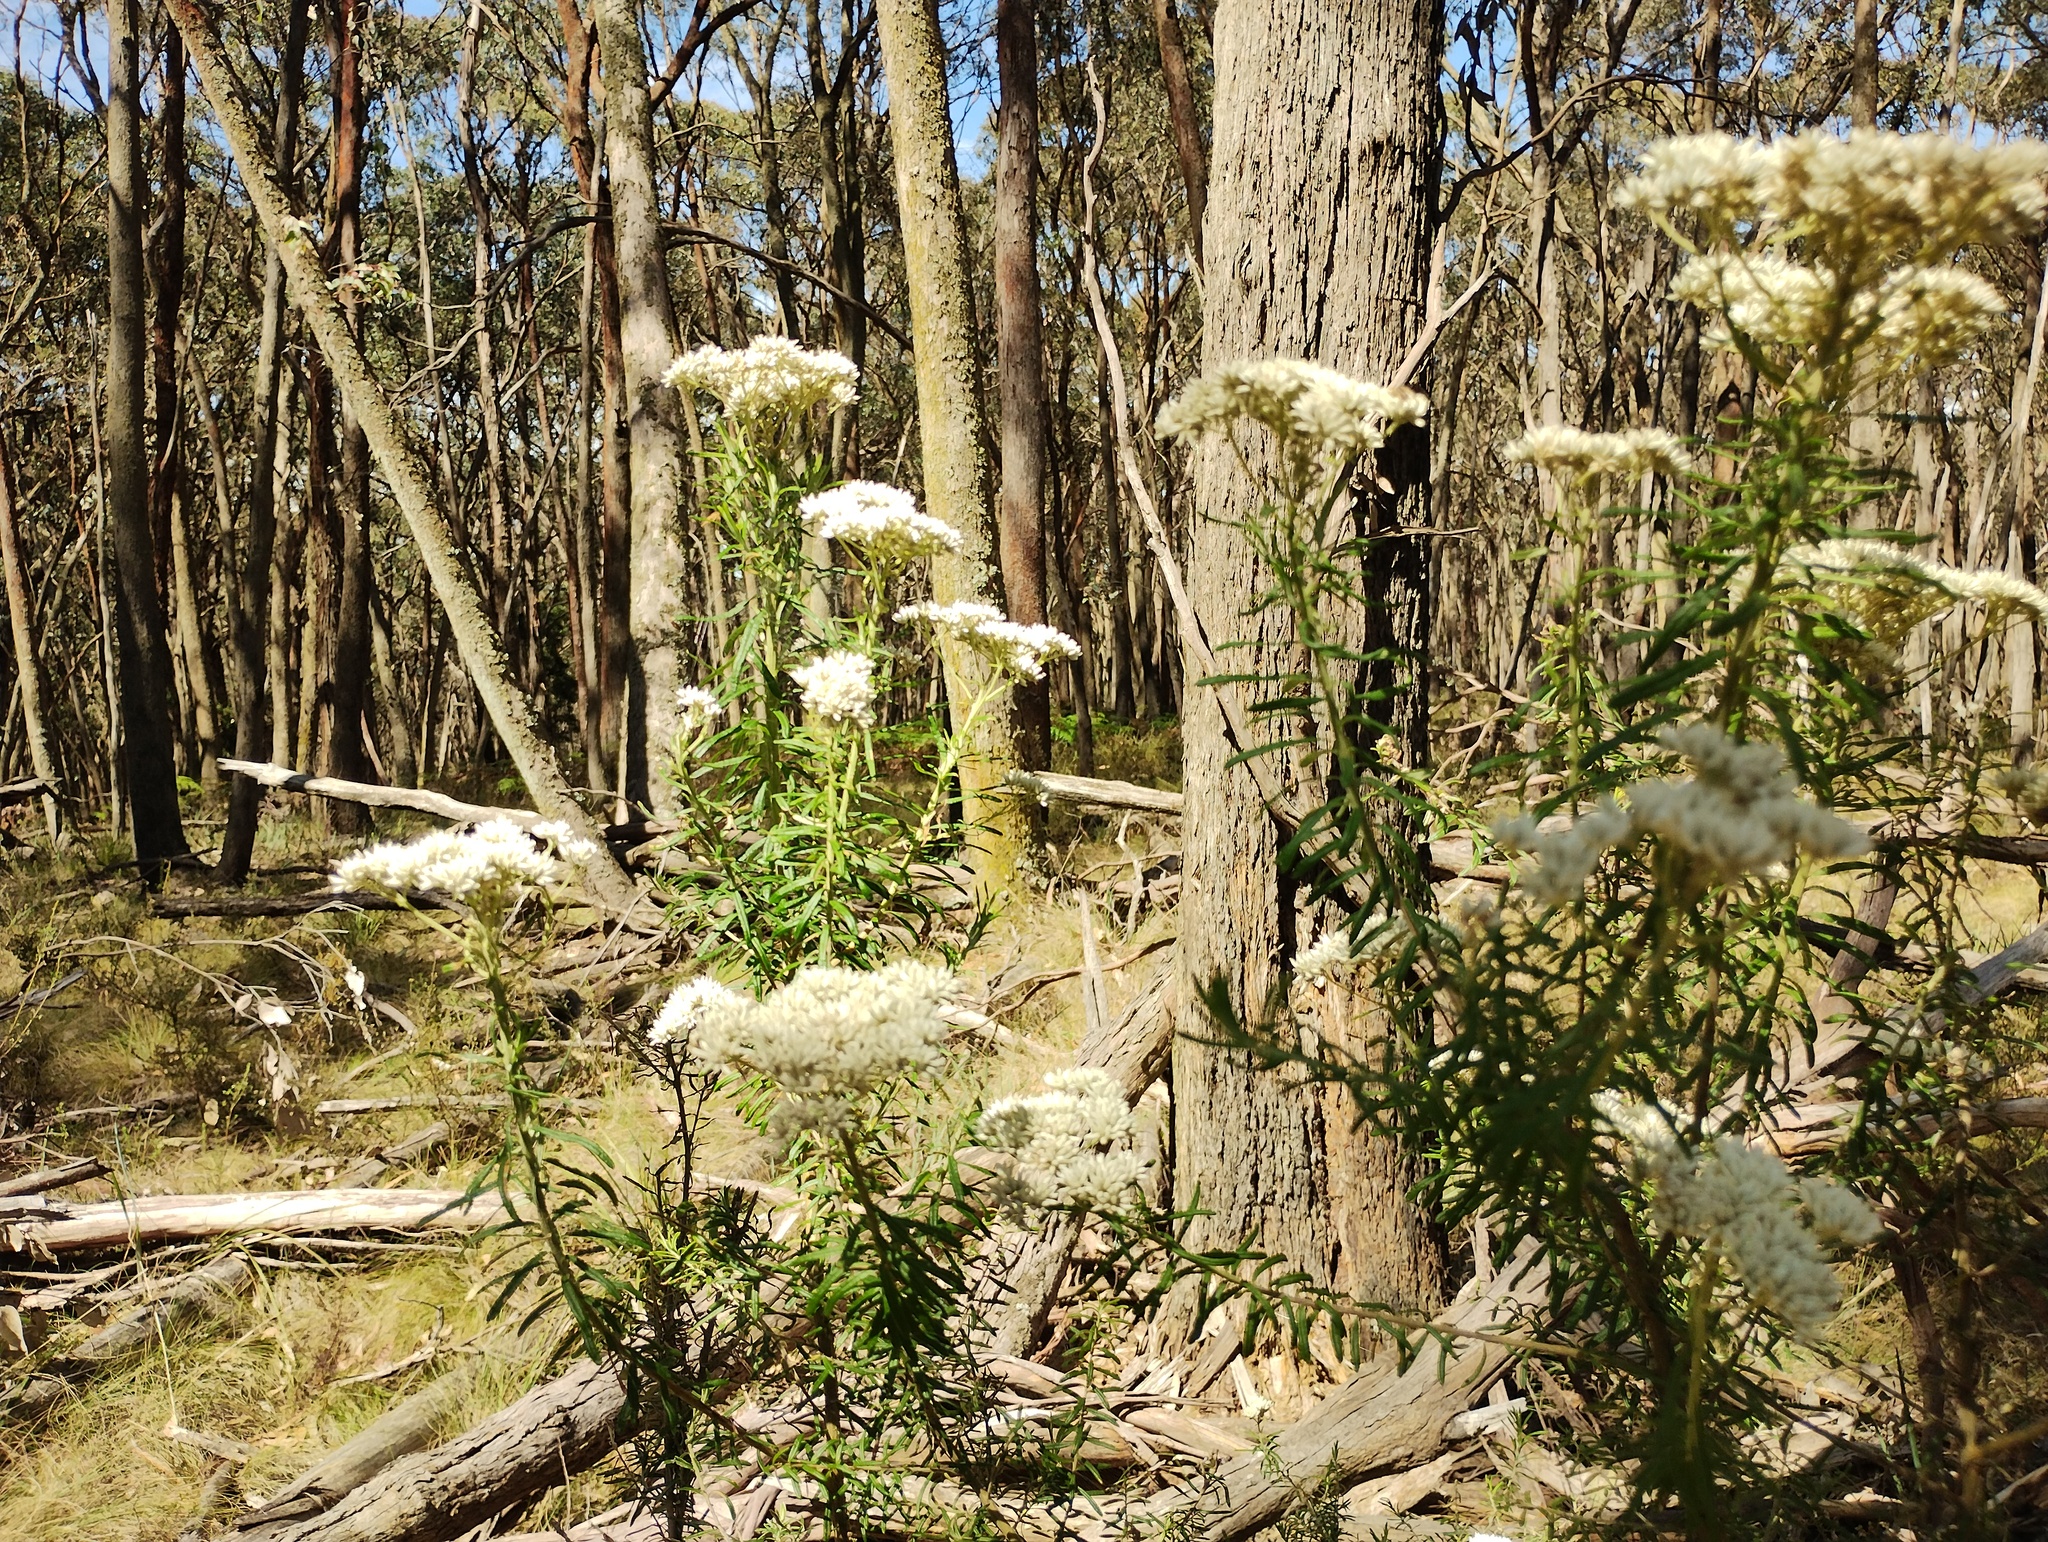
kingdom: Plantae
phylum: Tracheophyta
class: Magnoliopsida
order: Asterales
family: Asteraceae
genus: Cassinia
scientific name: Cassinia aculeata
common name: Australian tauhinu
